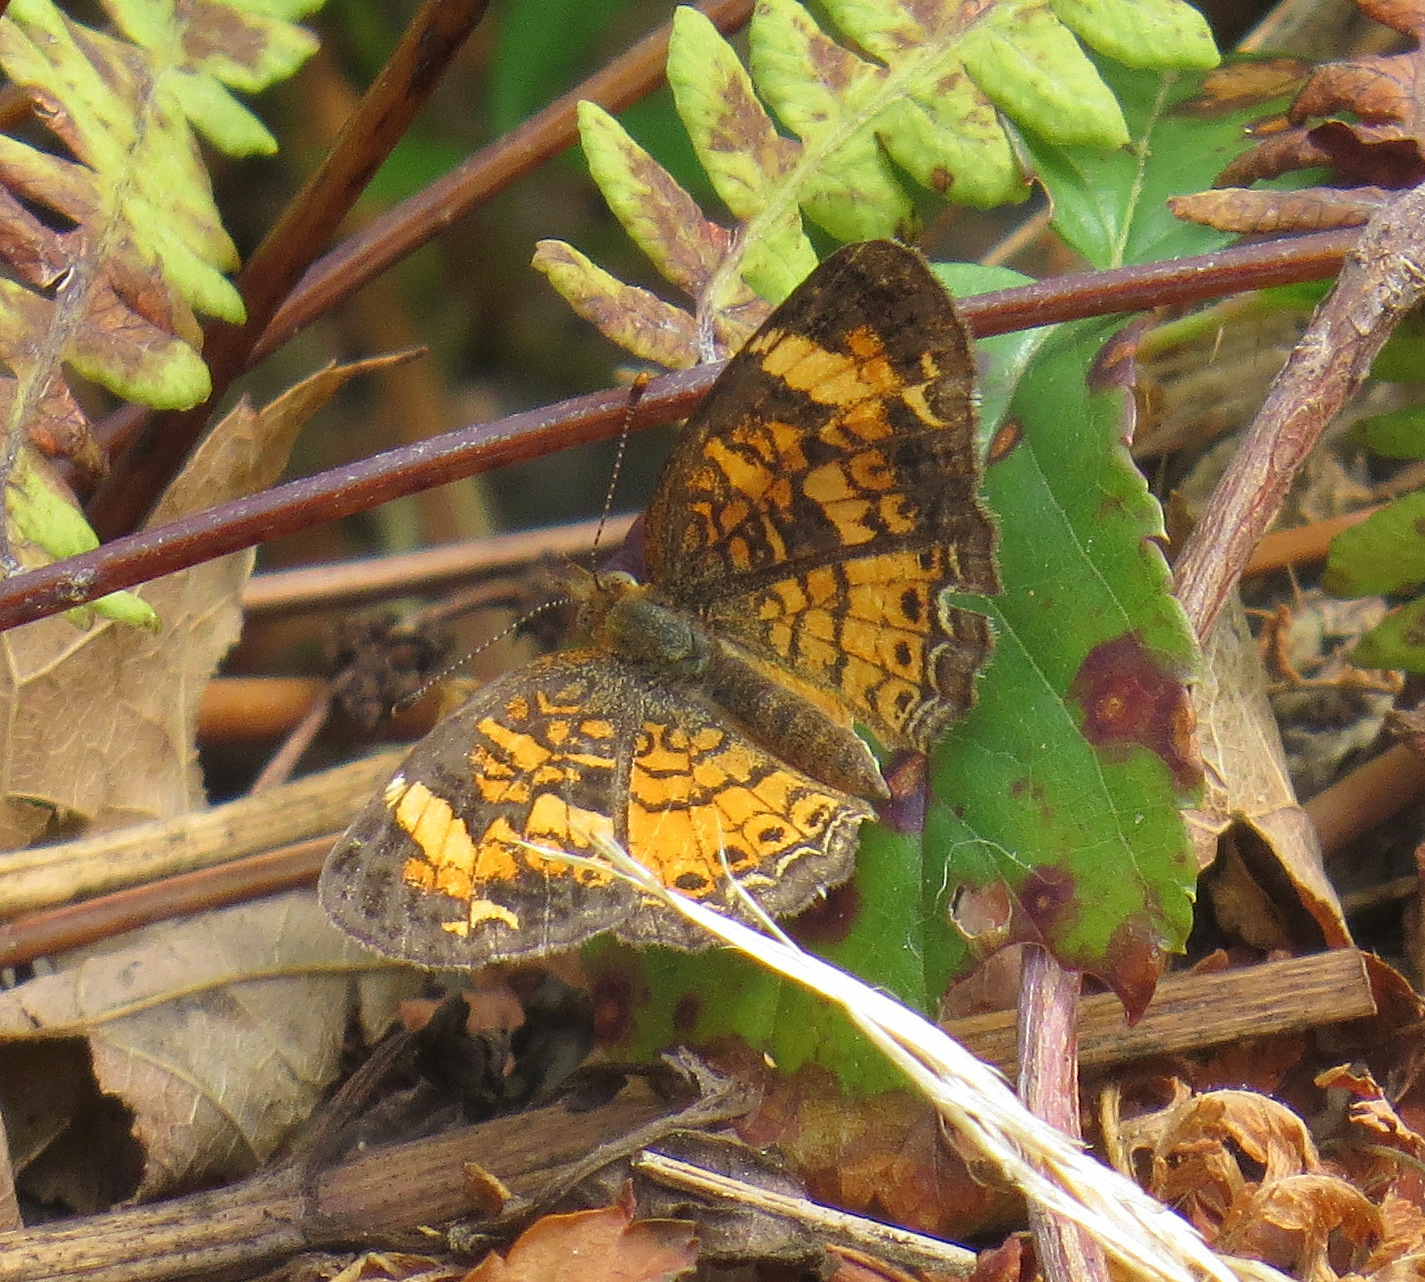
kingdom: Animalia
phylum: Arthropoda
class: Insecta
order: Lepidoptera
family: Nymphalidae
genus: Phyciodes
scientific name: Phyciodes tharos
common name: Pearl crescent
